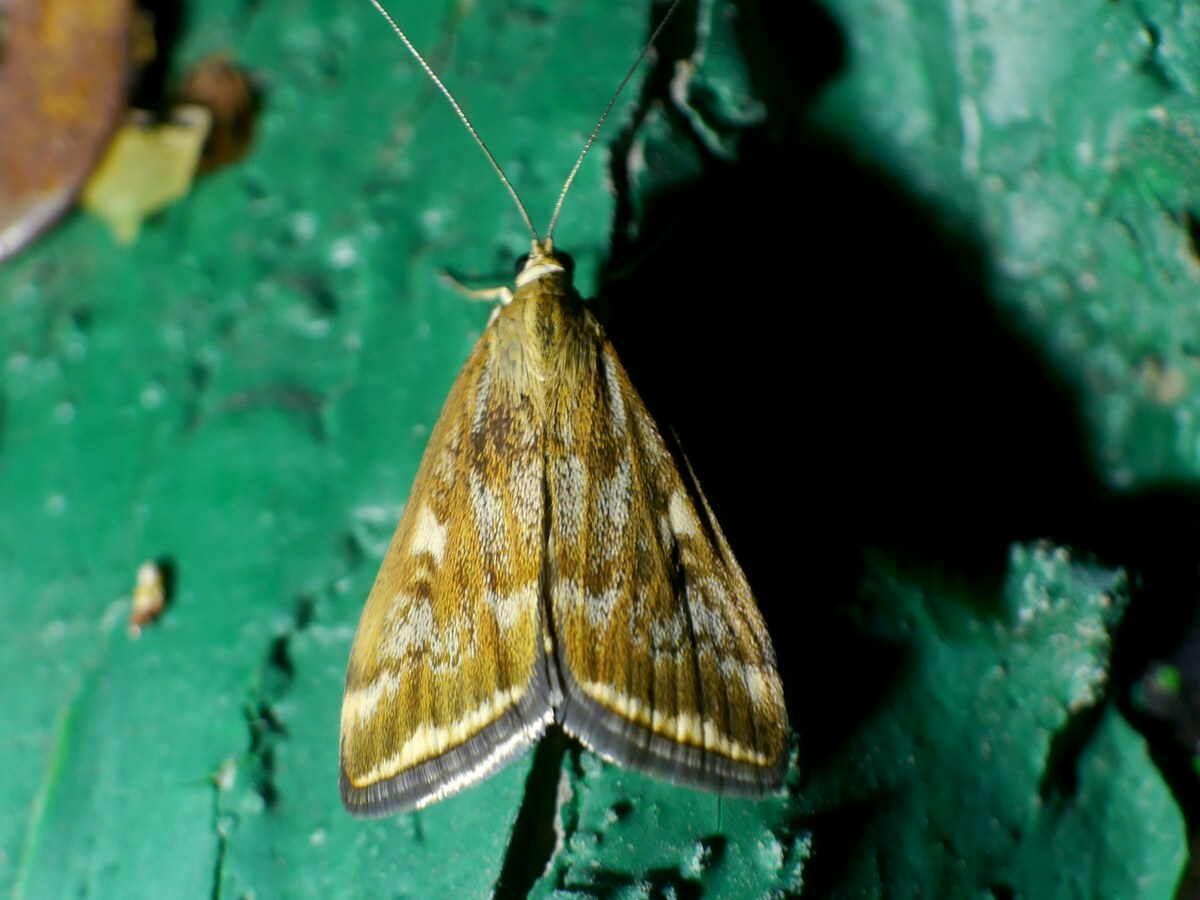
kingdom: Animalia
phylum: Arthropoda
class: Insecta
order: Lepidoptera
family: Crambidae
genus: Loxostege
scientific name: Loxostege sticticalis
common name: Crambid moth
